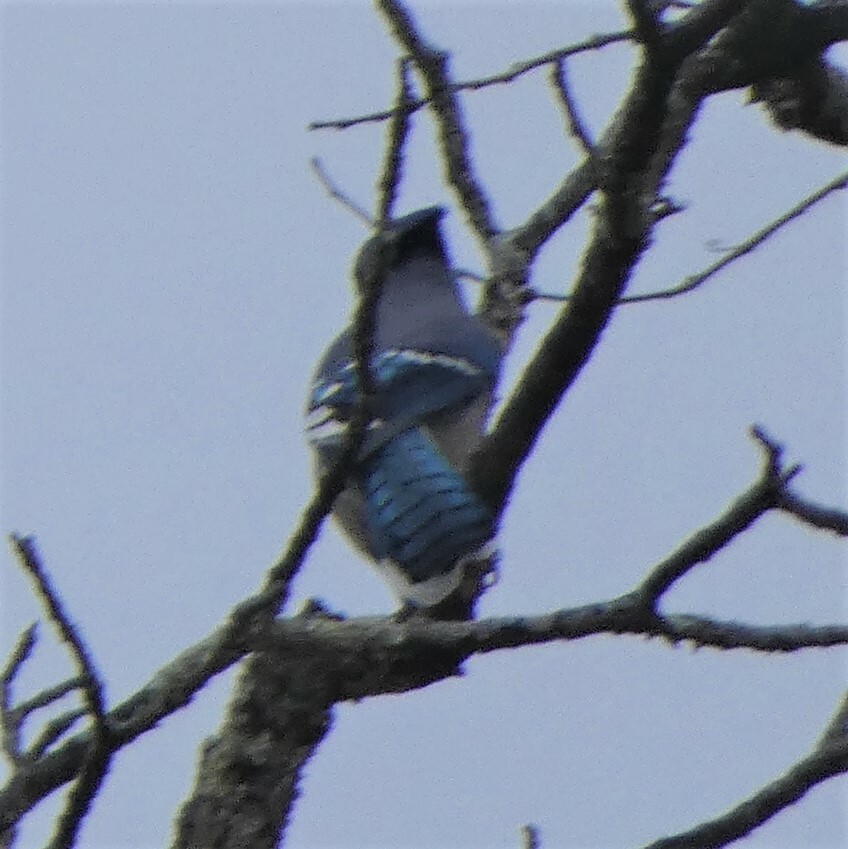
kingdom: Animalia
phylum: Chordata
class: Aves
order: Passeriformes
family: Corvidae
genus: Cyanocitta
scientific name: Cyanocitta cristata
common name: Blue jay
